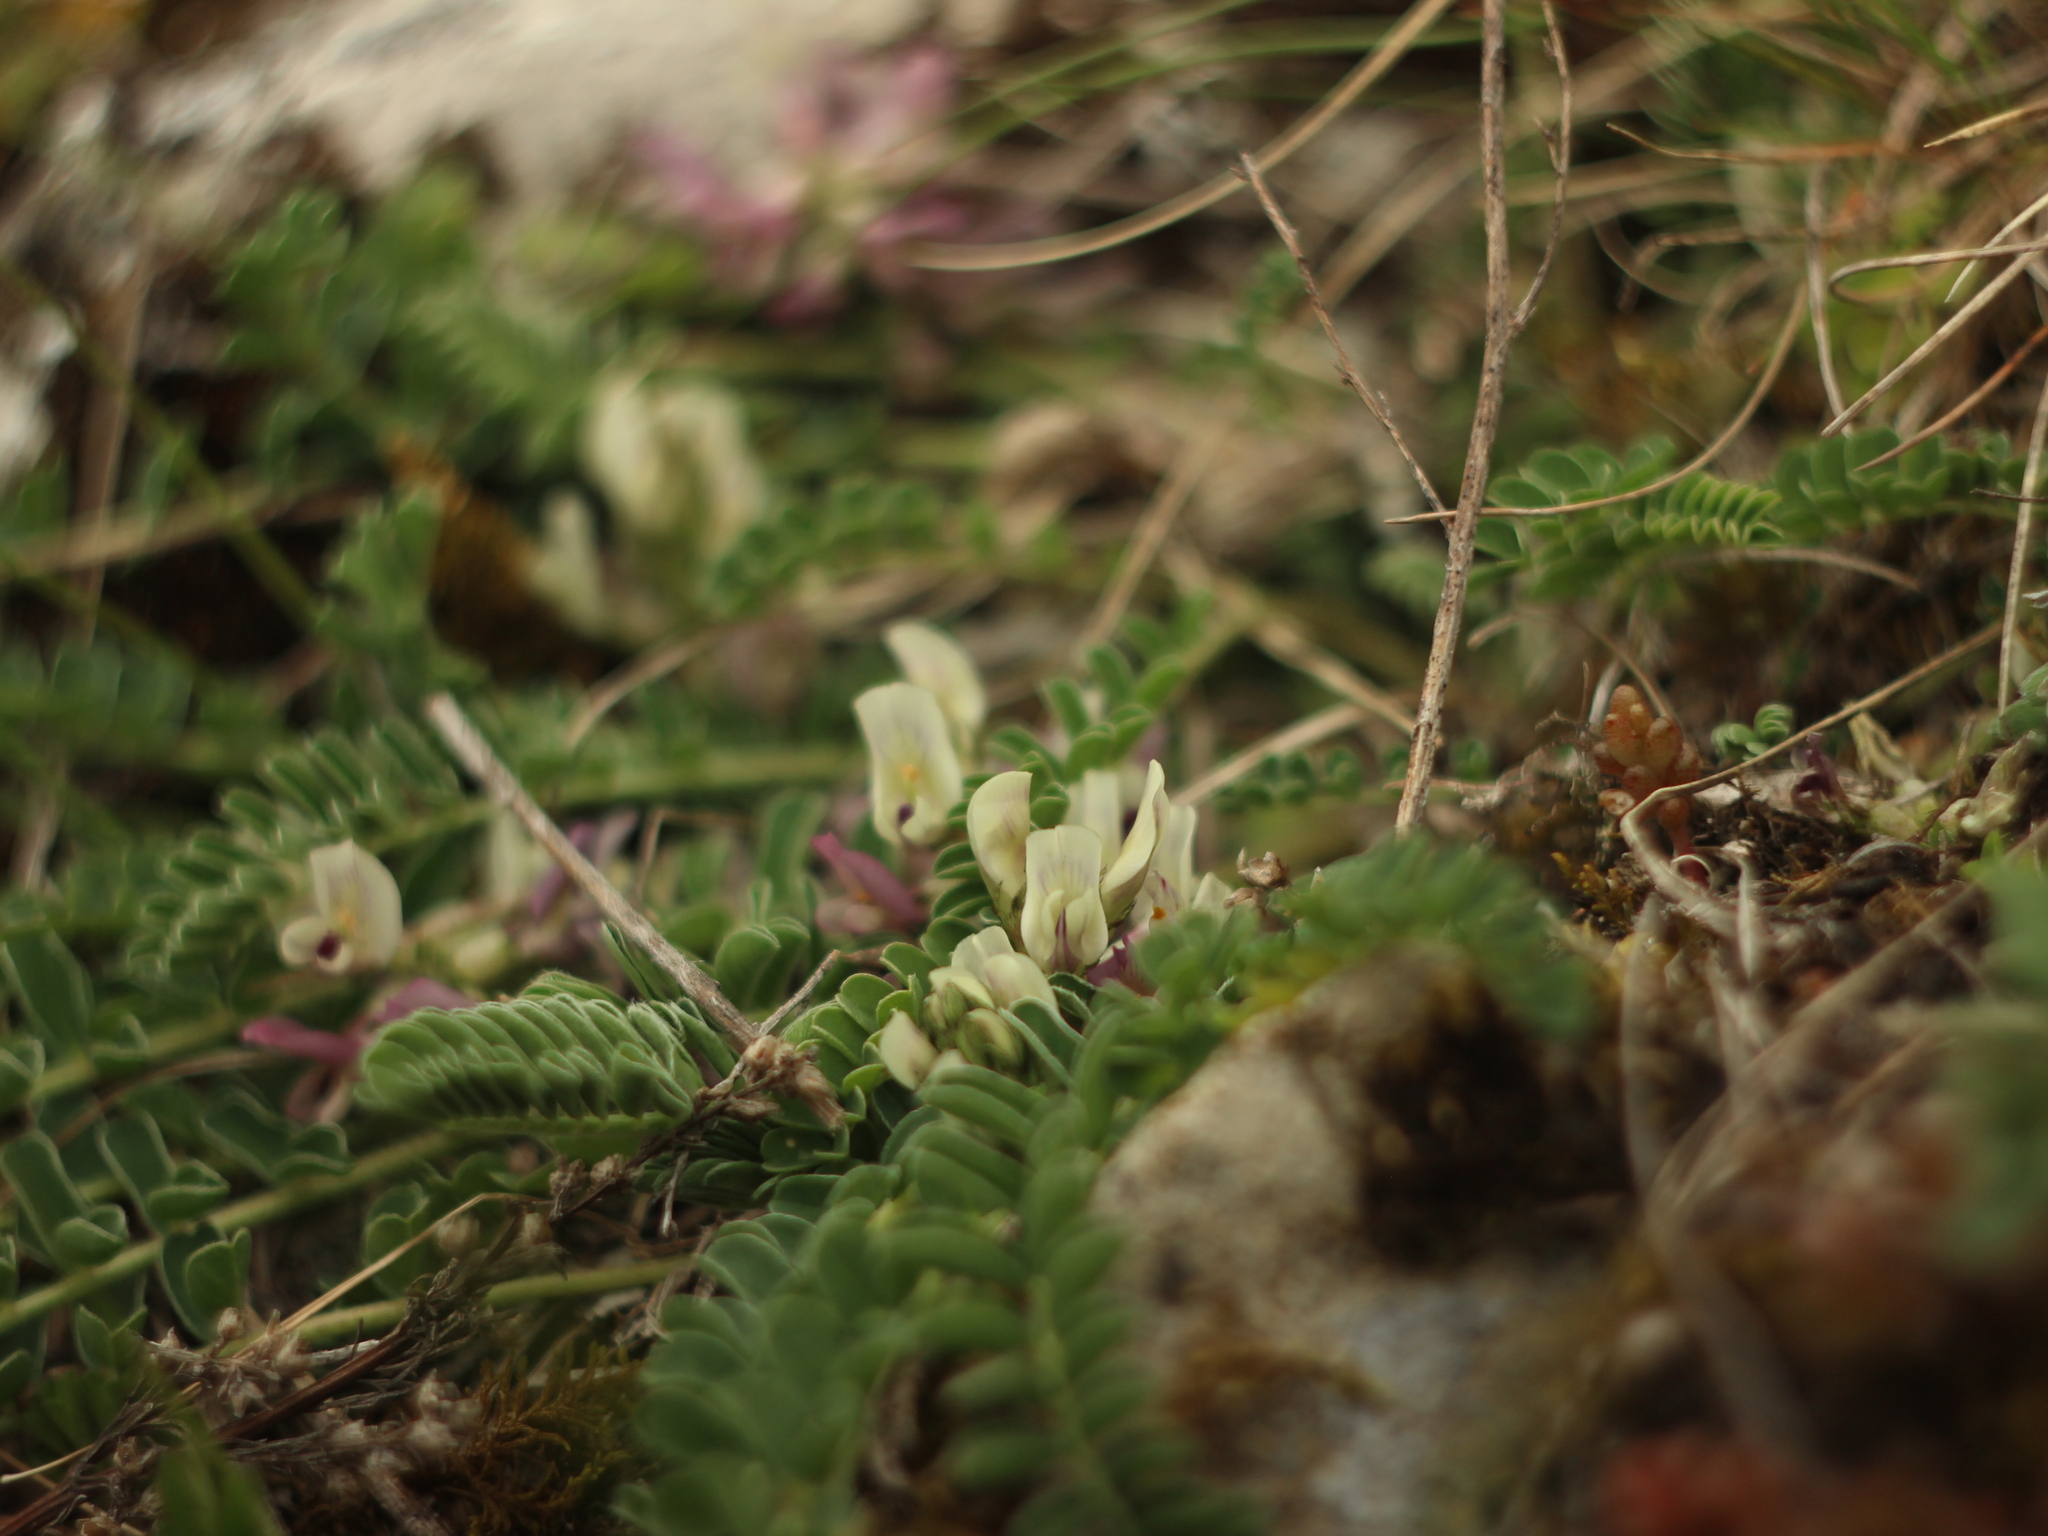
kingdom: Plantae
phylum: Tracheophyta
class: Magnoliopsida
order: Fabales
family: Fabaceae
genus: Astragalus
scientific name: Astragalus depressus
